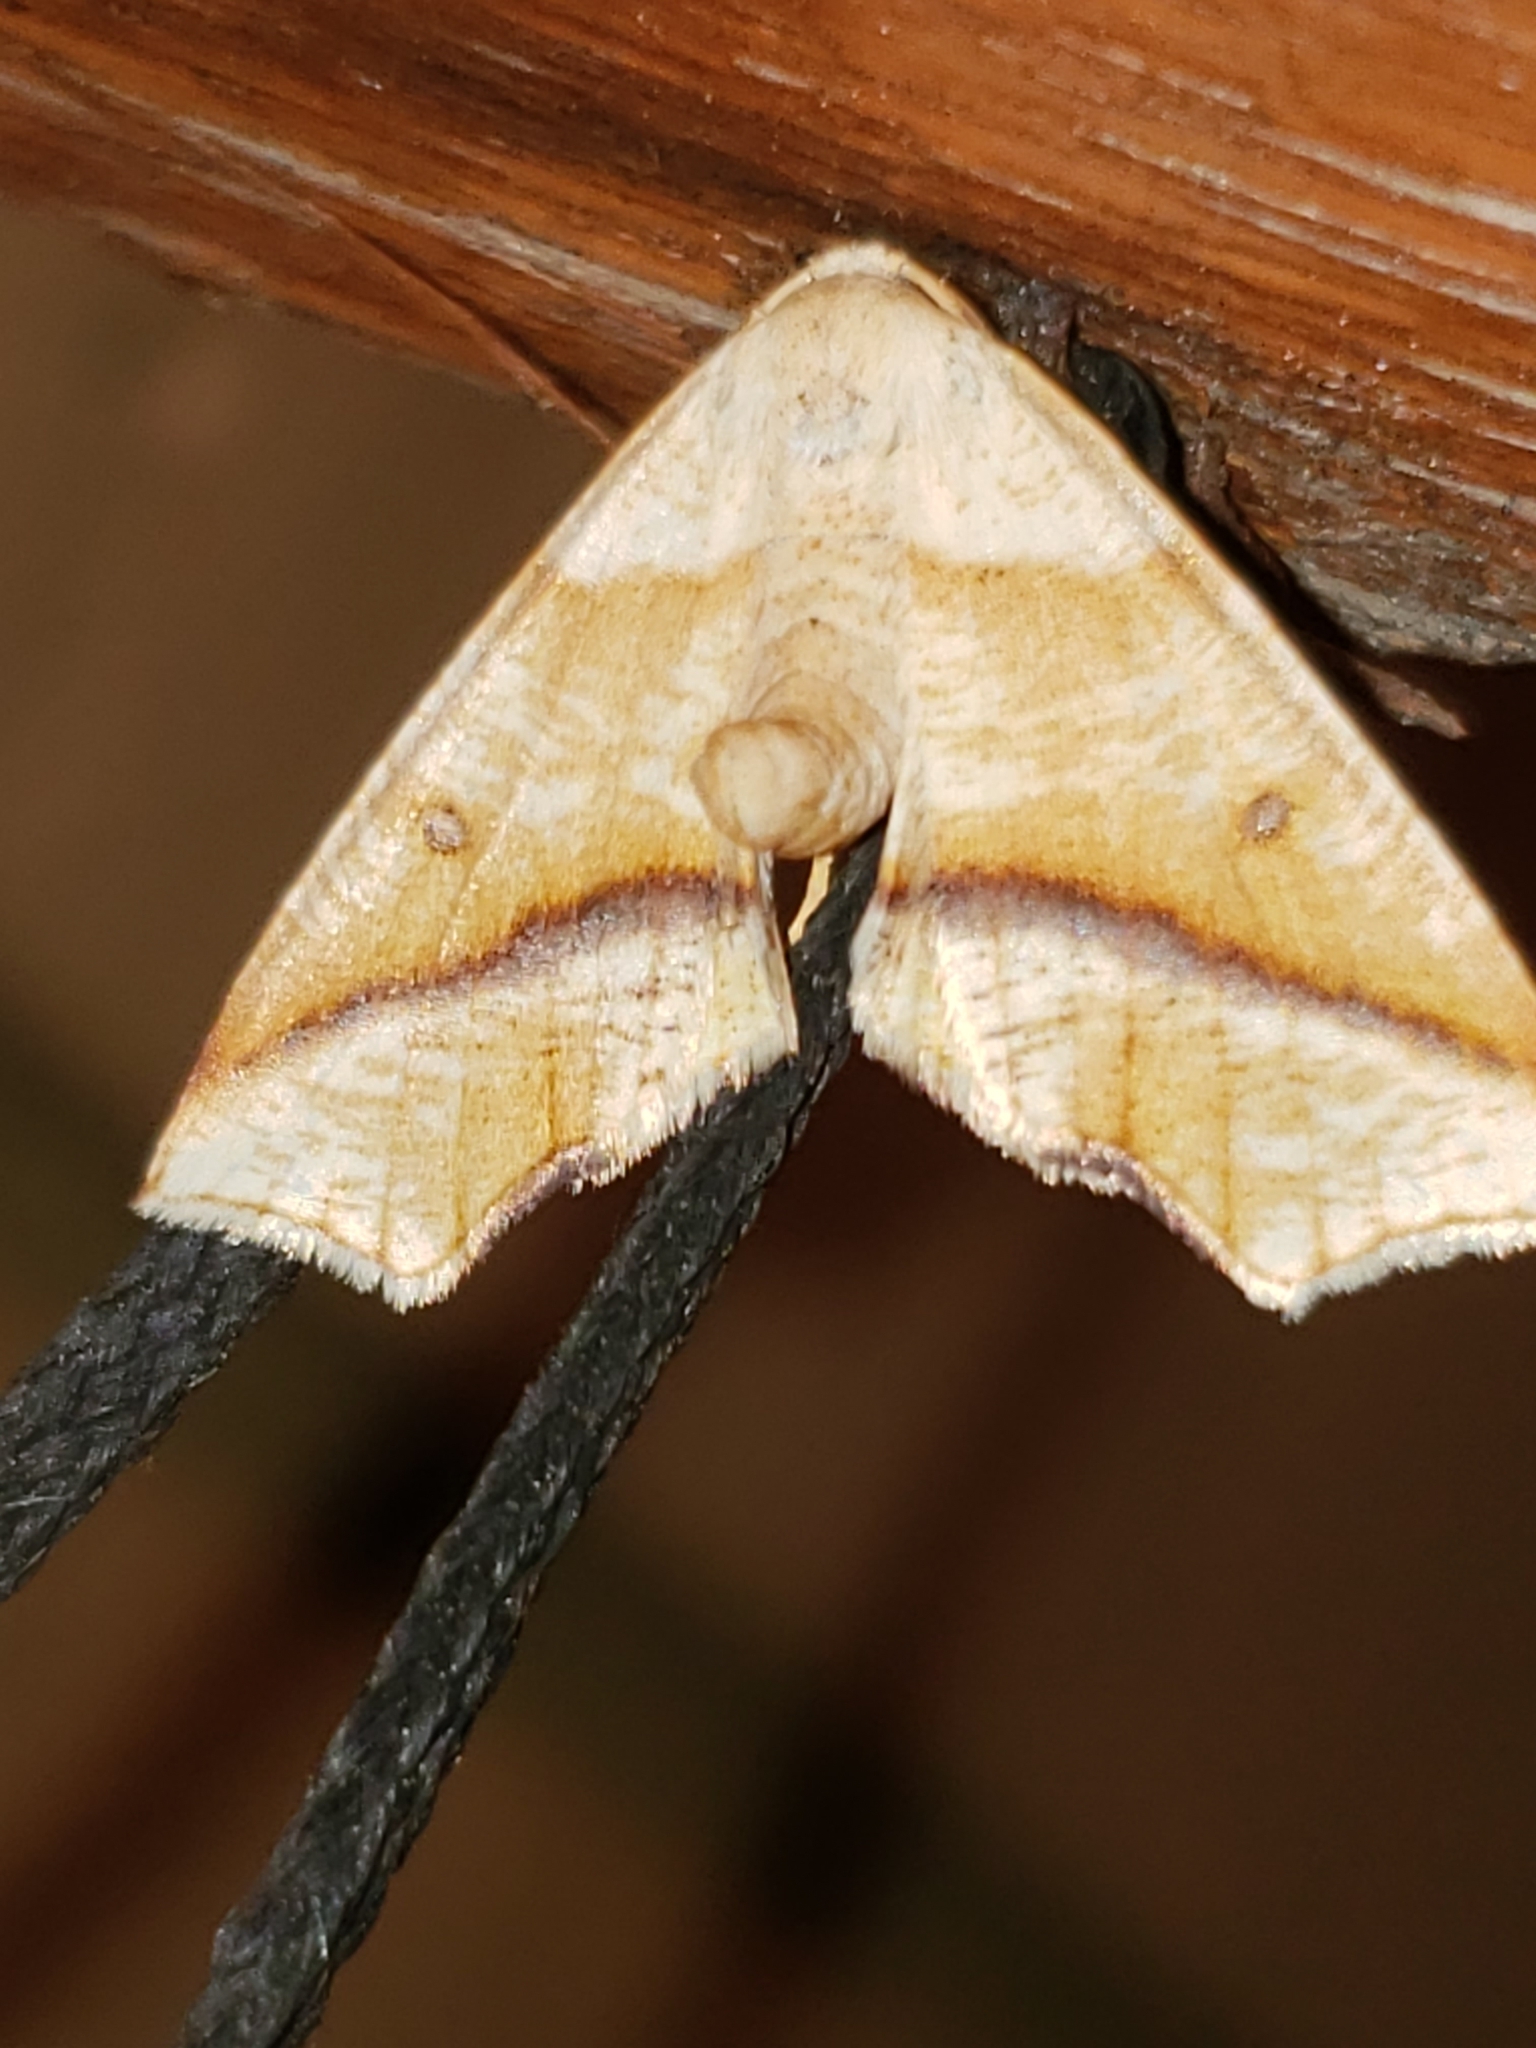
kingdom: Animalia
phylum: Arthropoda
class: Insecta
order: Lepidoptera
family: Geometridae
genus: Plagodis
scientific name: Plagodis alcoolaria
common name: Hollow-spotted plagodis
